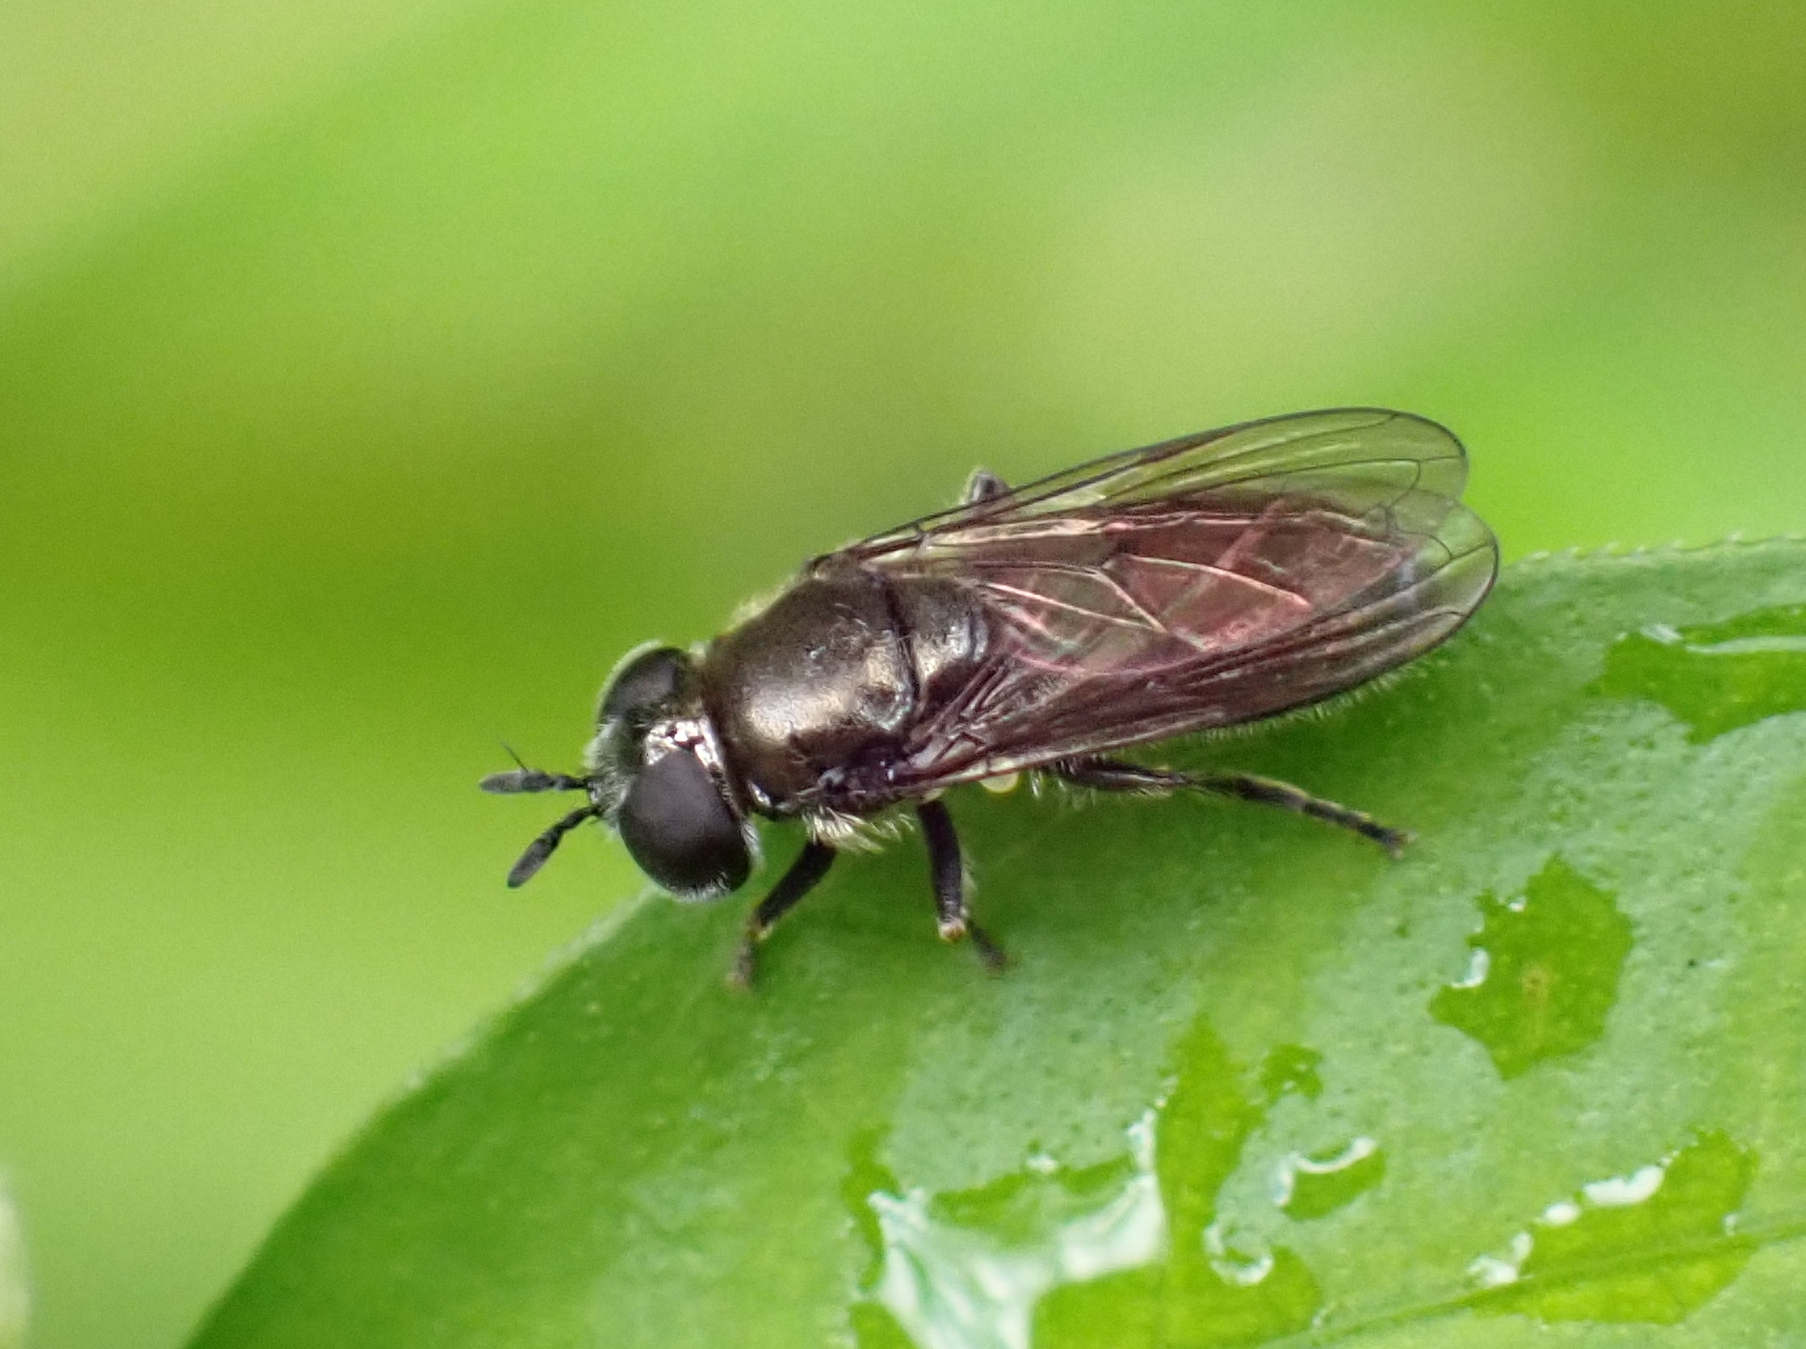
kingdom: Animalia
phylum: Arthropoda
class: Insecta
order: Diptera
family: Syrphidae
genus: Pipizella
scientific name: Pipizella
